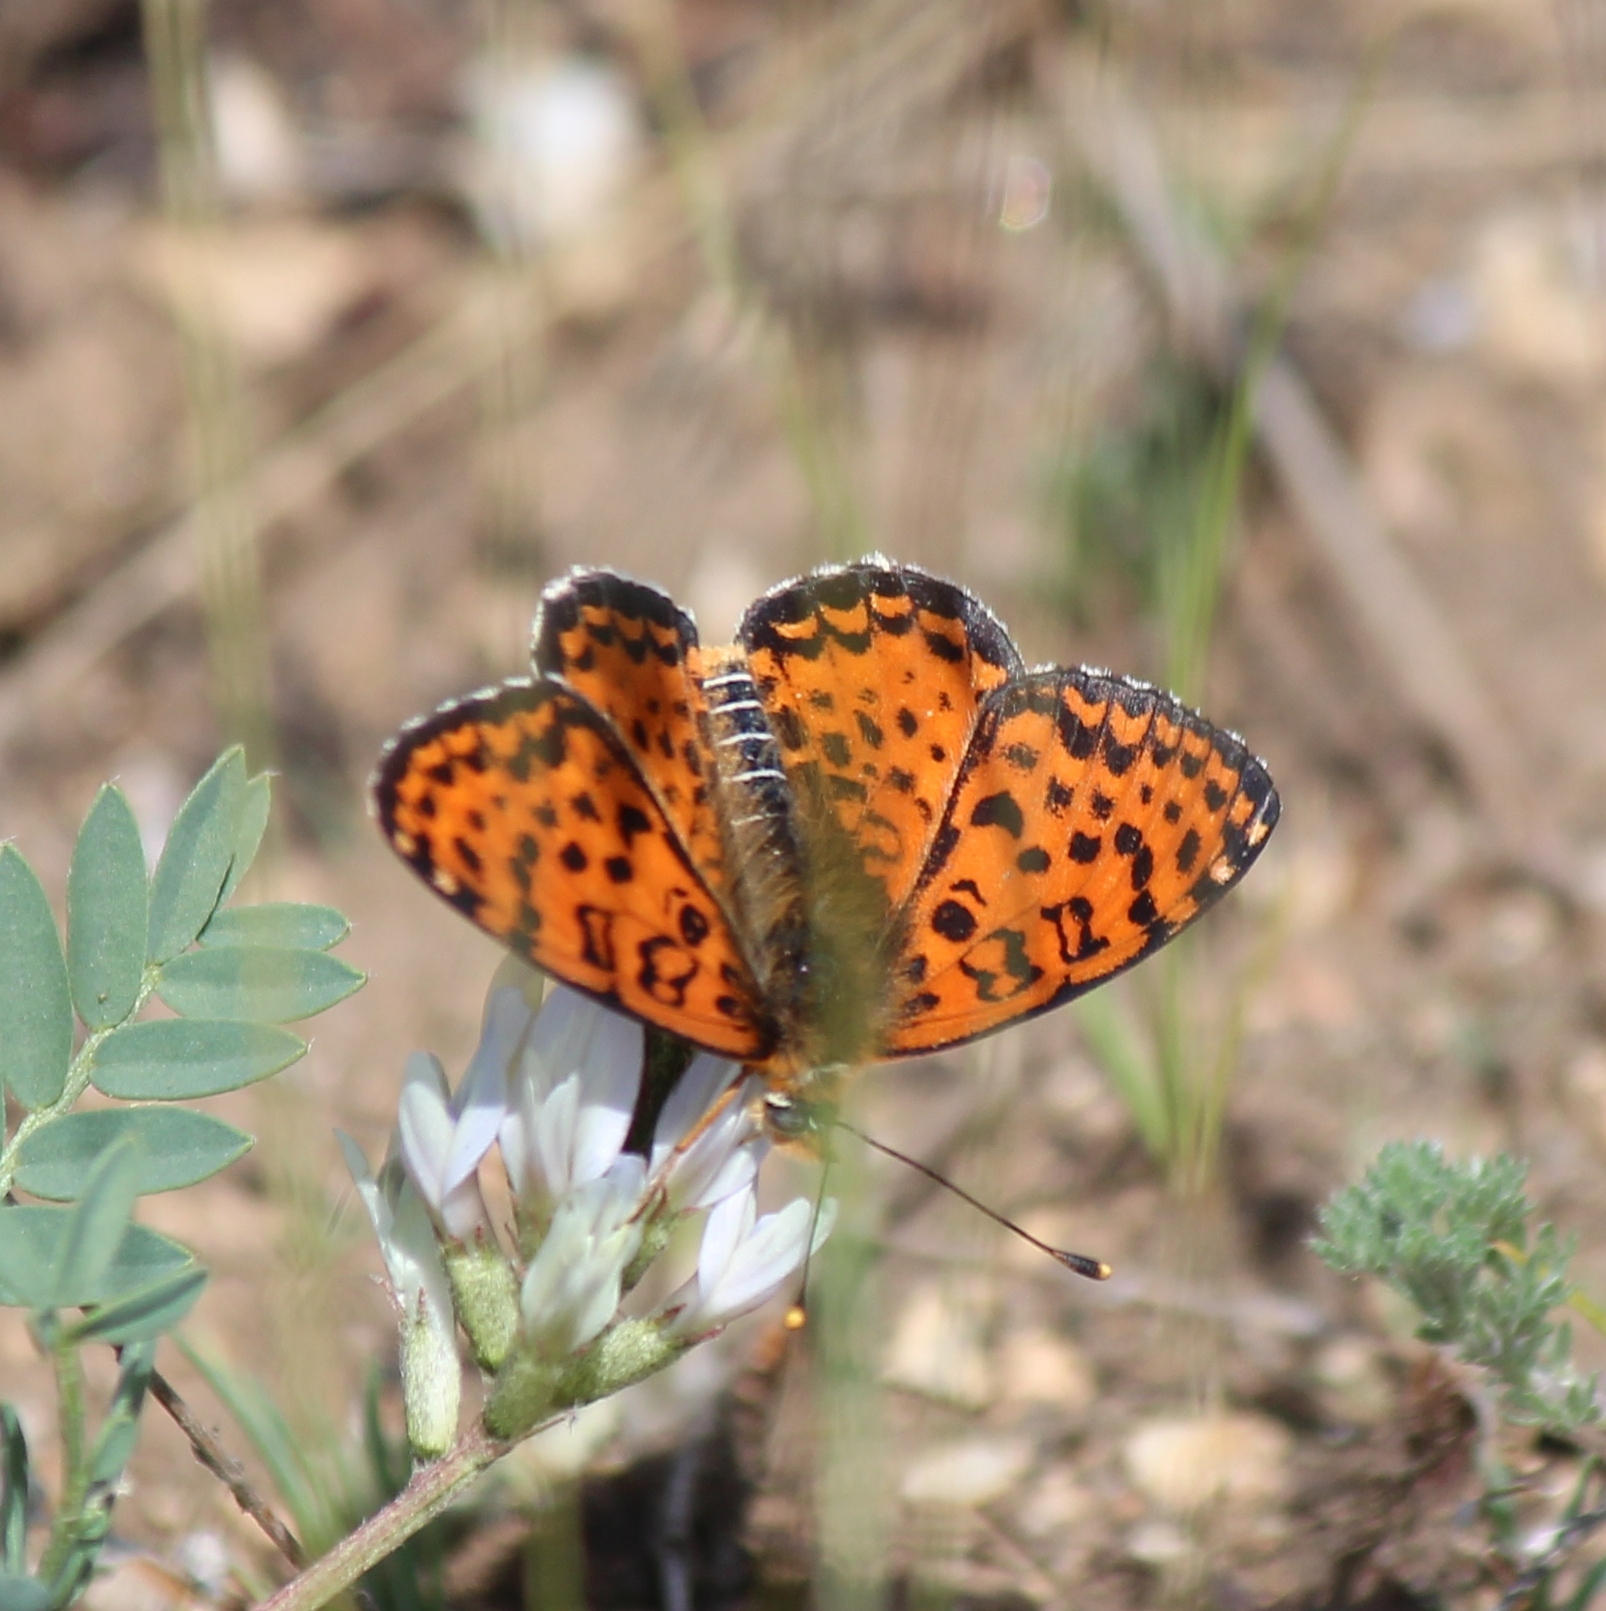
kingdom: Animalia
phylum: Arthropoda
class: Insecta
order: Lepidoptera
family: Nymphalidae
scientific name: Nymphalidae
